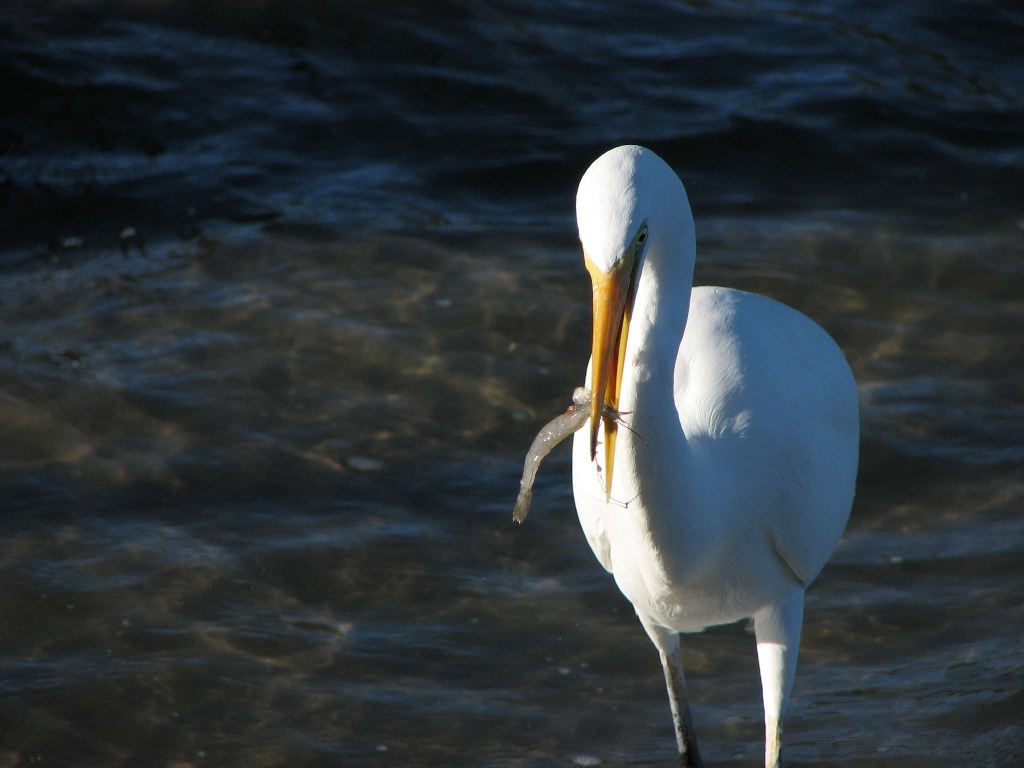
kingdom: Animalia
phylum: Chordata
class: Aves
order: Pelecaniformes
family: Ardeidae
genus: Ardea
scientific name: Ardea alba
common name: Great egret
